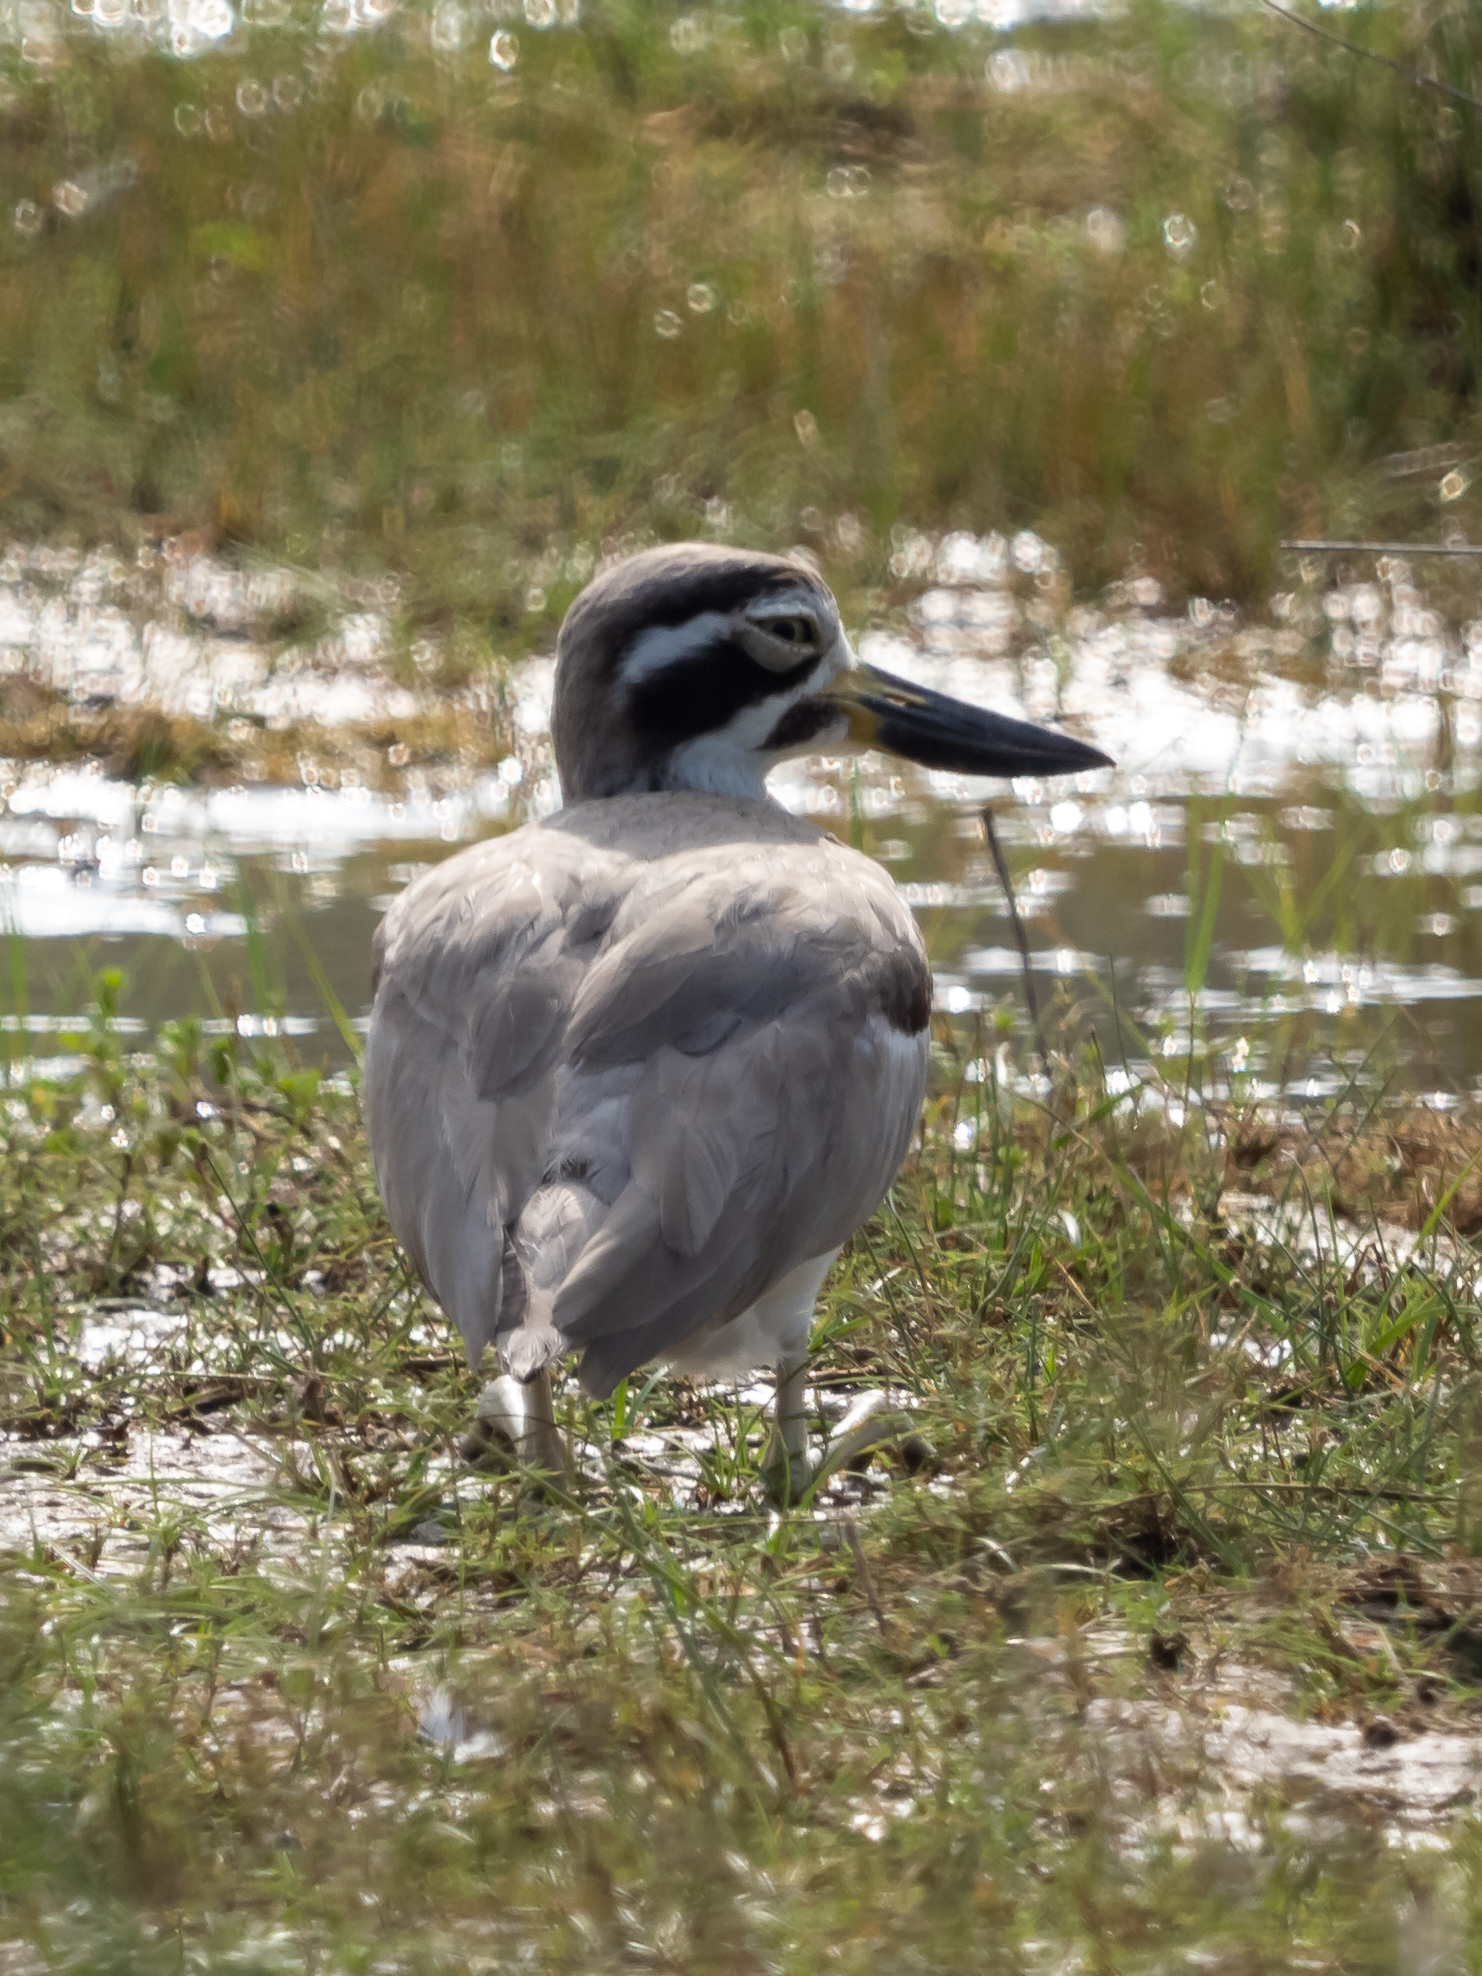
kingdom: Animalia
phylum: Chordata
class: Aves
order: Charadriiformes
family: Burhinidae
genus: Esacus
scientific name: Esacus recurvirostris
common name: Great stone-curlew
